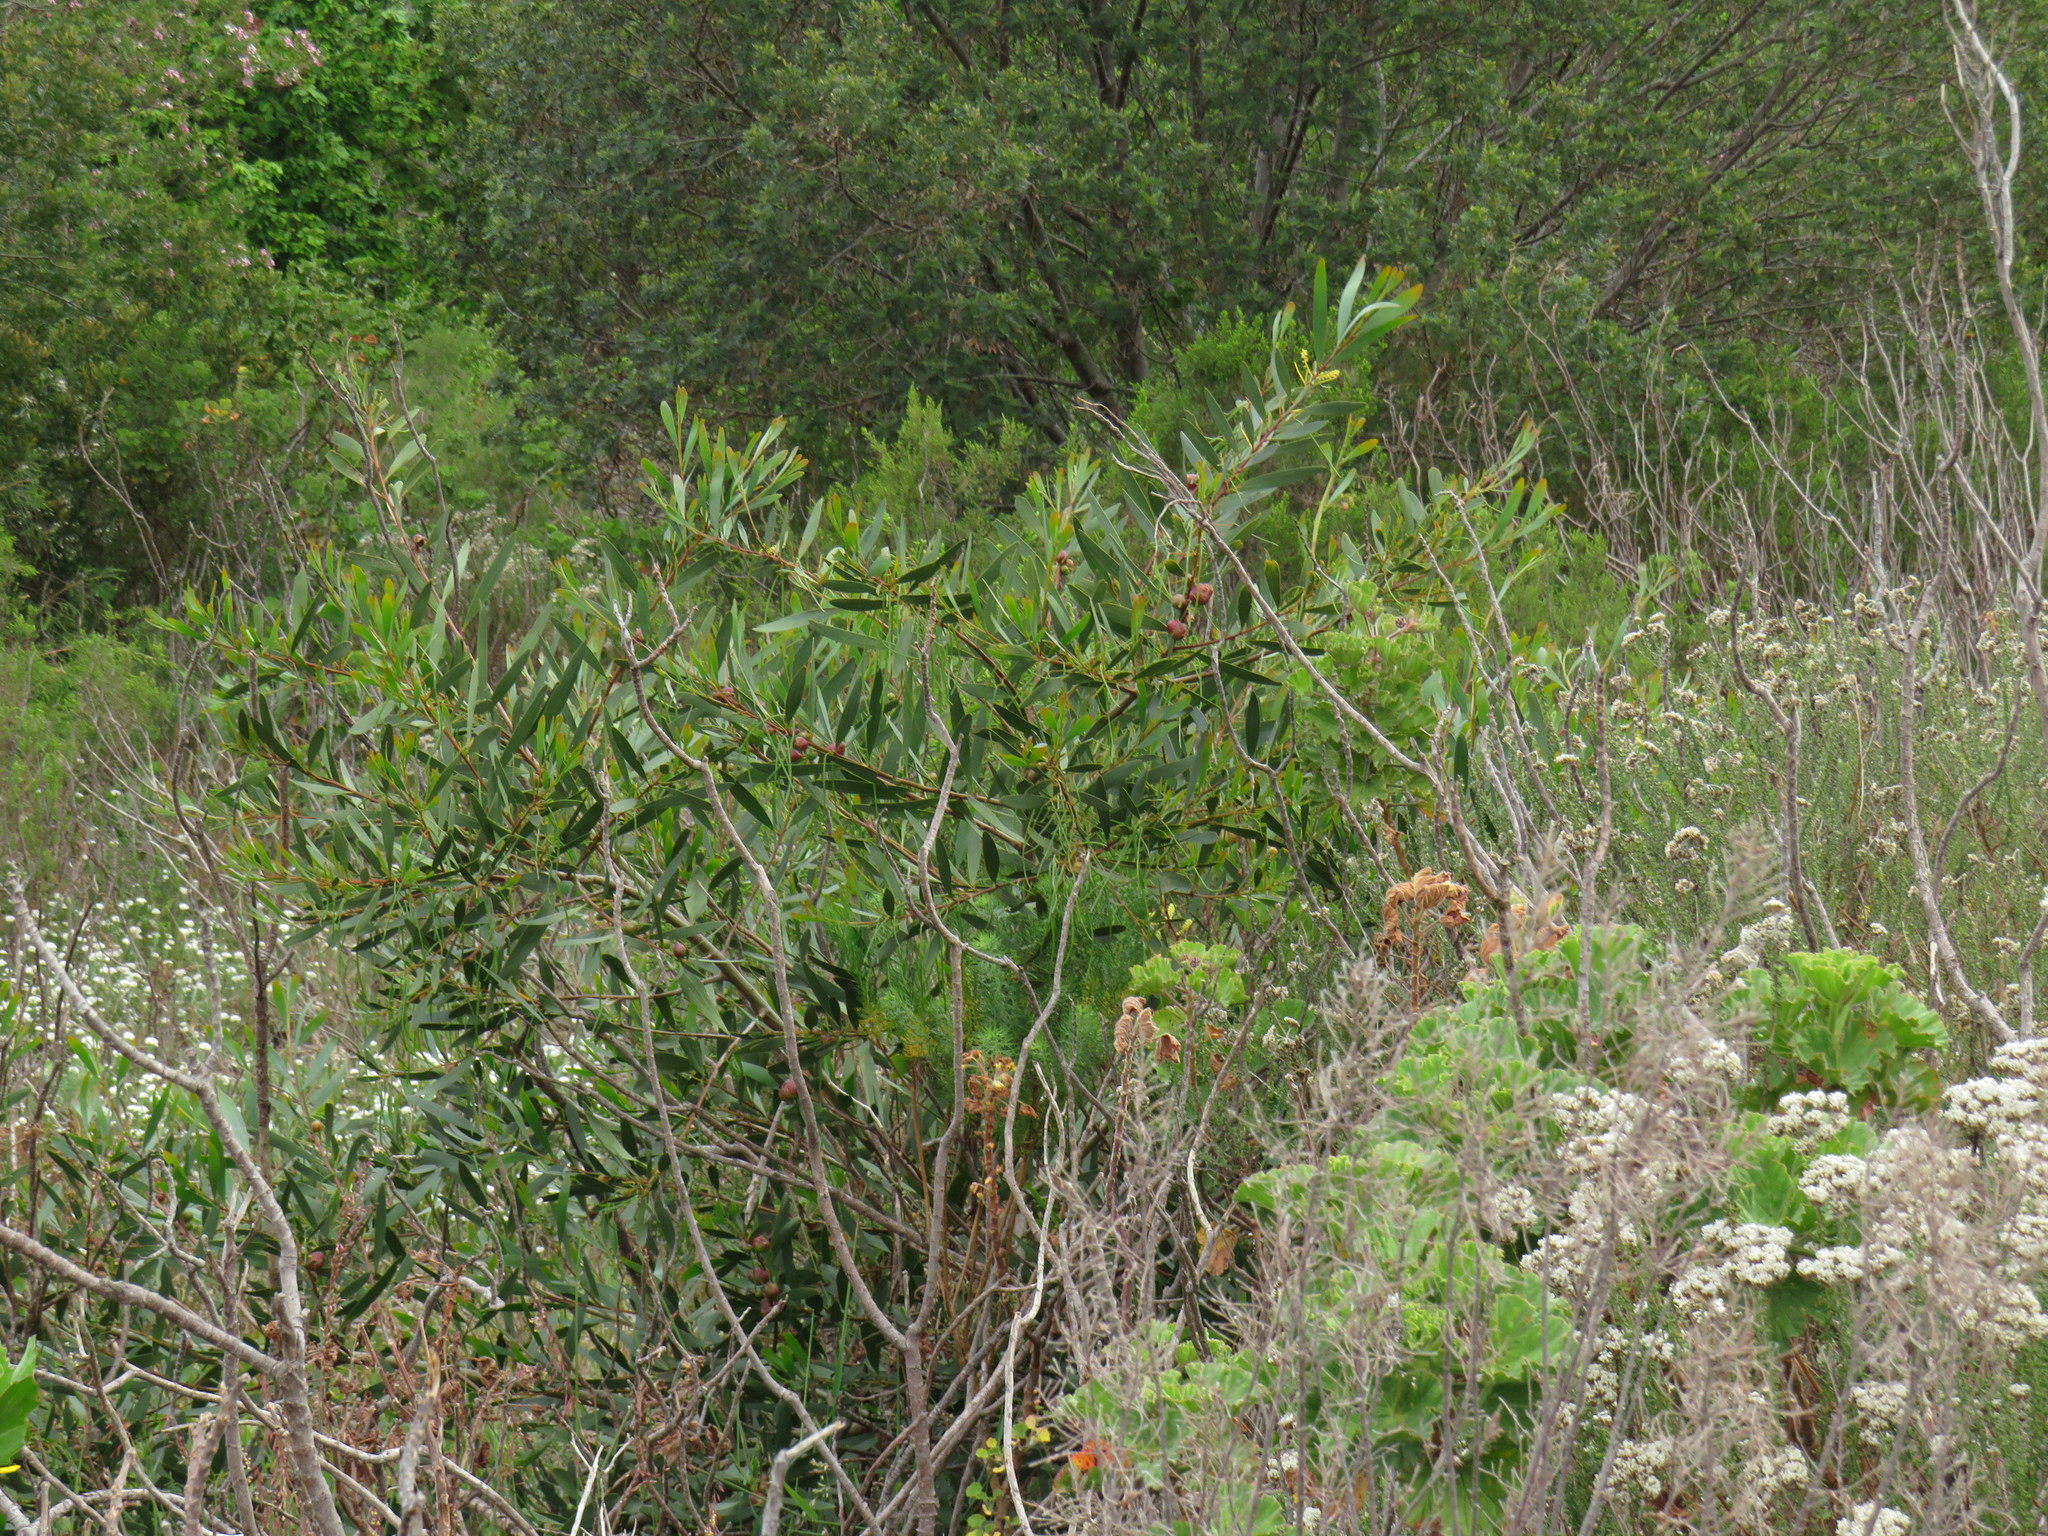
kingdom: Animalia
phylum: Arthropoda
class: Insecta
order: Hymenoptera
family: Pteromalidae
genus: Trichilogaster
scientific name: Trichilogaster acaciaelongifoliae
